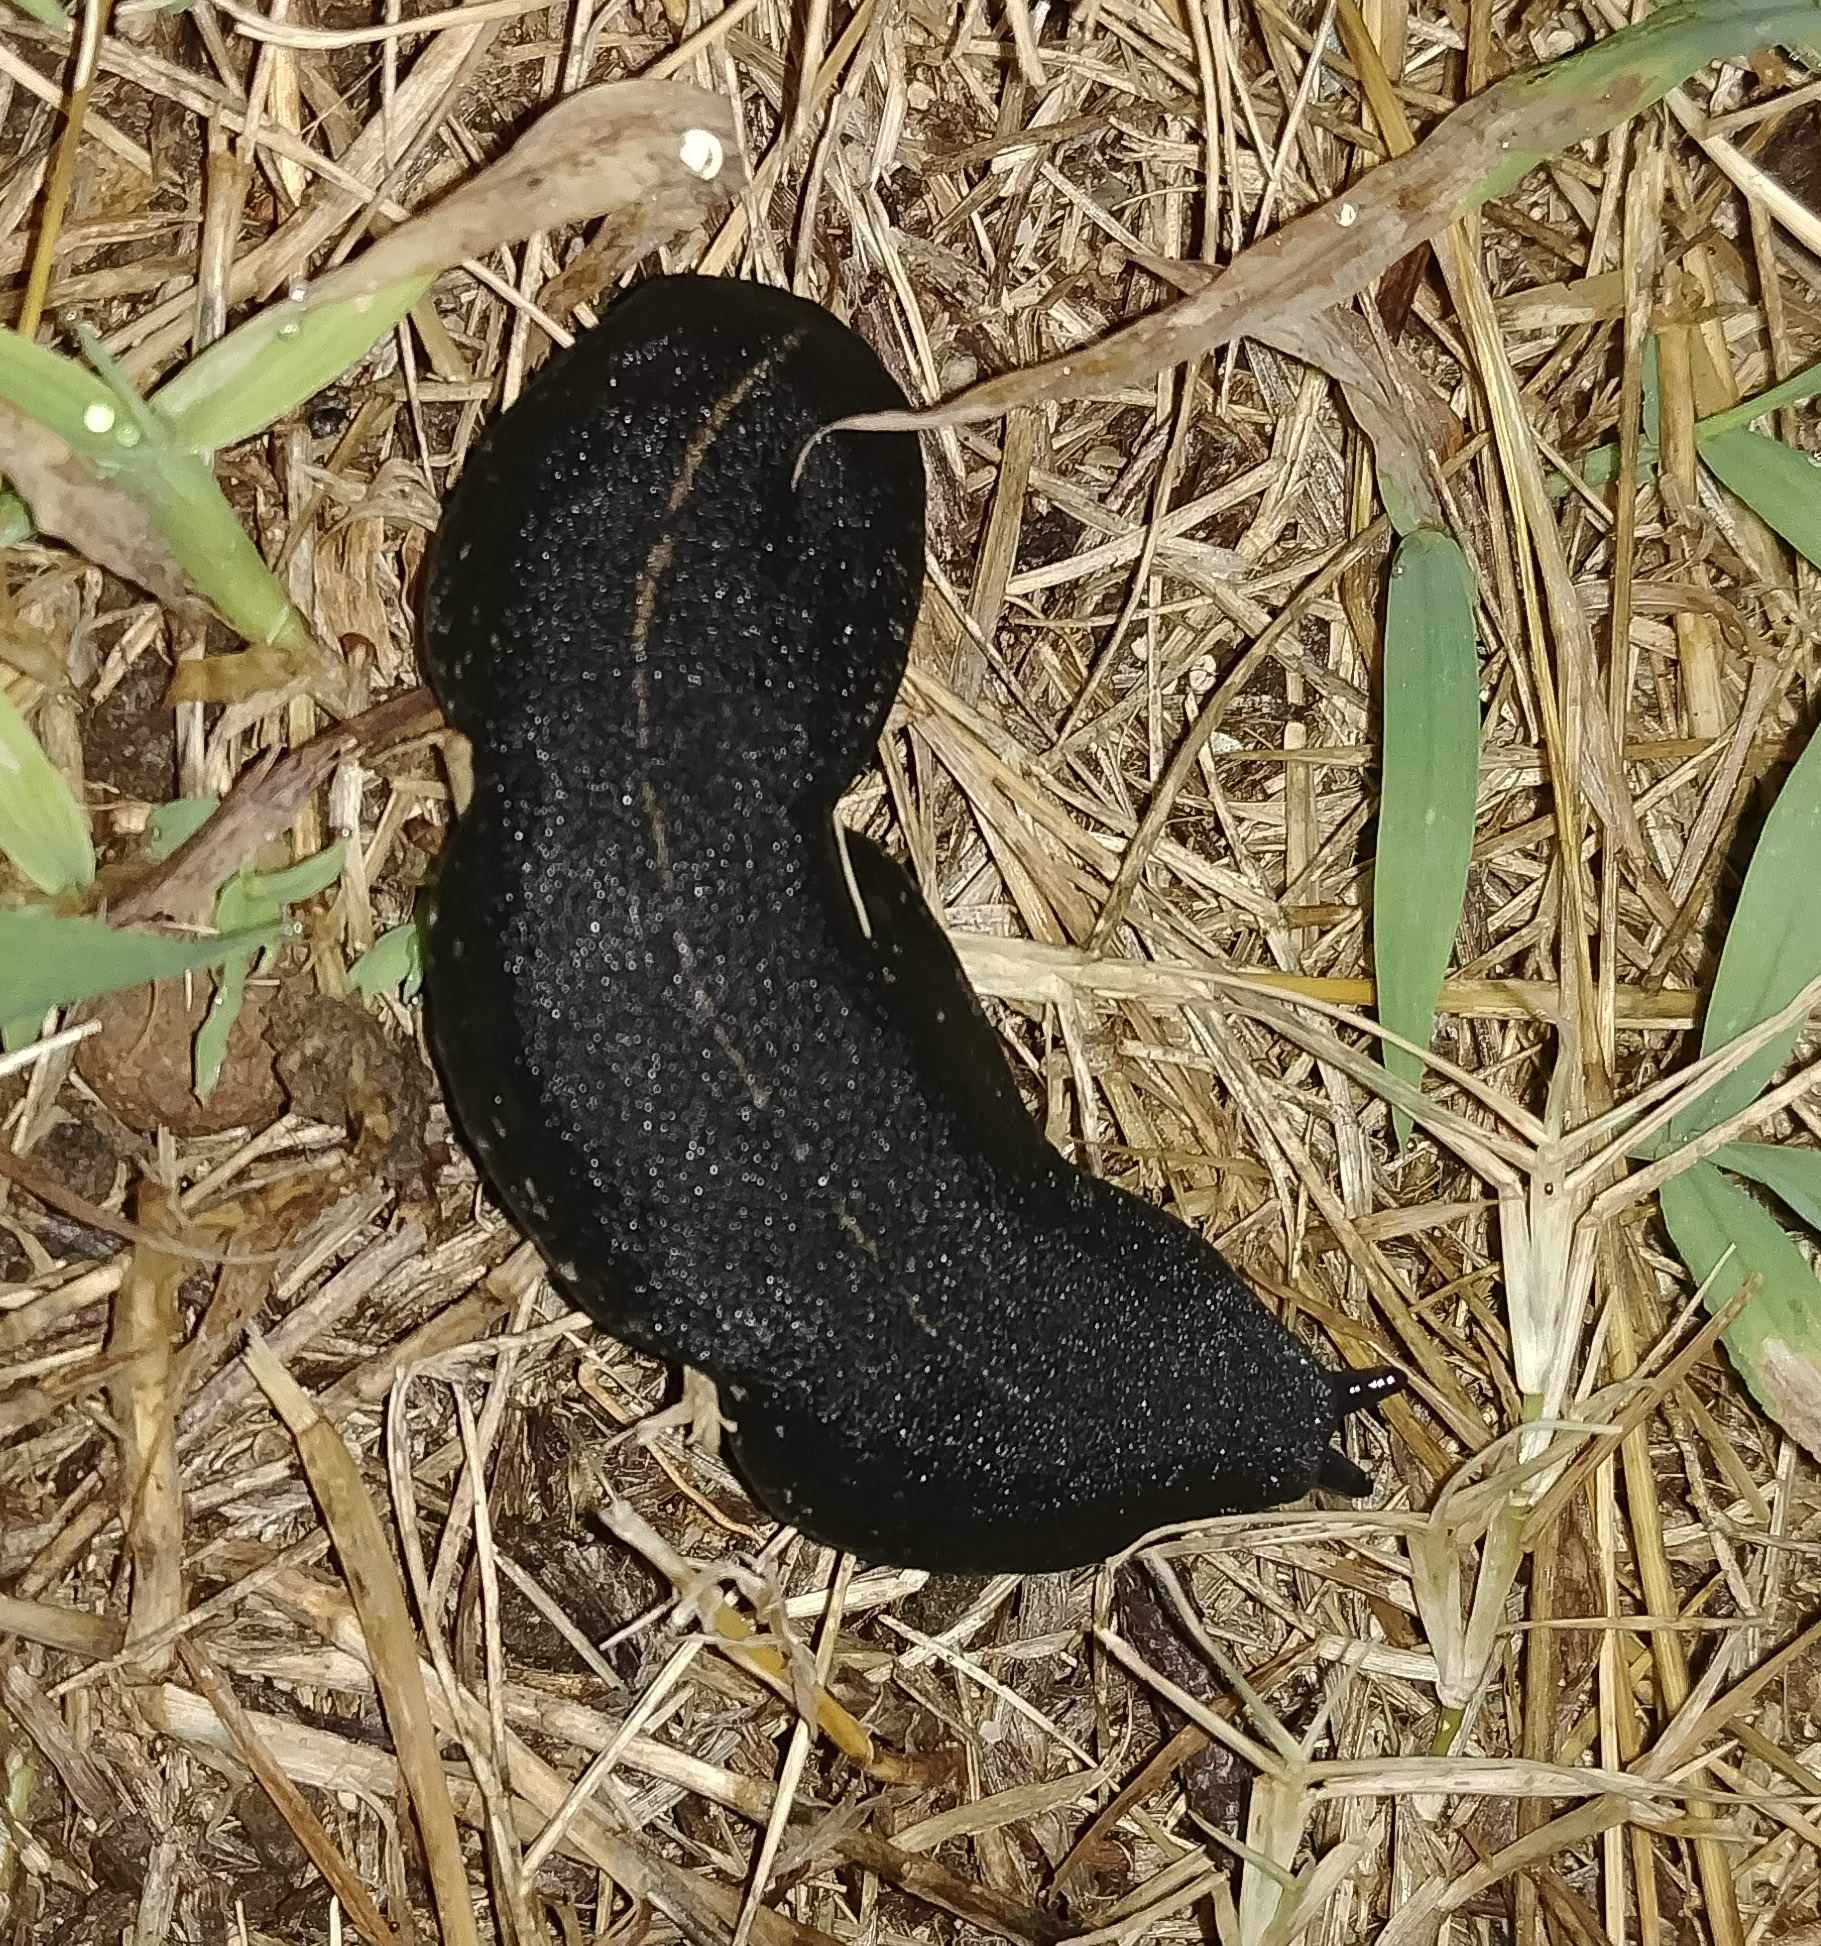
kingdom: Animalia
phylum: Mollusca
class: Gastropoda
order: Systellommatophora
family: Veronicellidae
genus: Laevicaulis
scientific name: Laevicaulis alte
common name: Tropical leatherleaf
